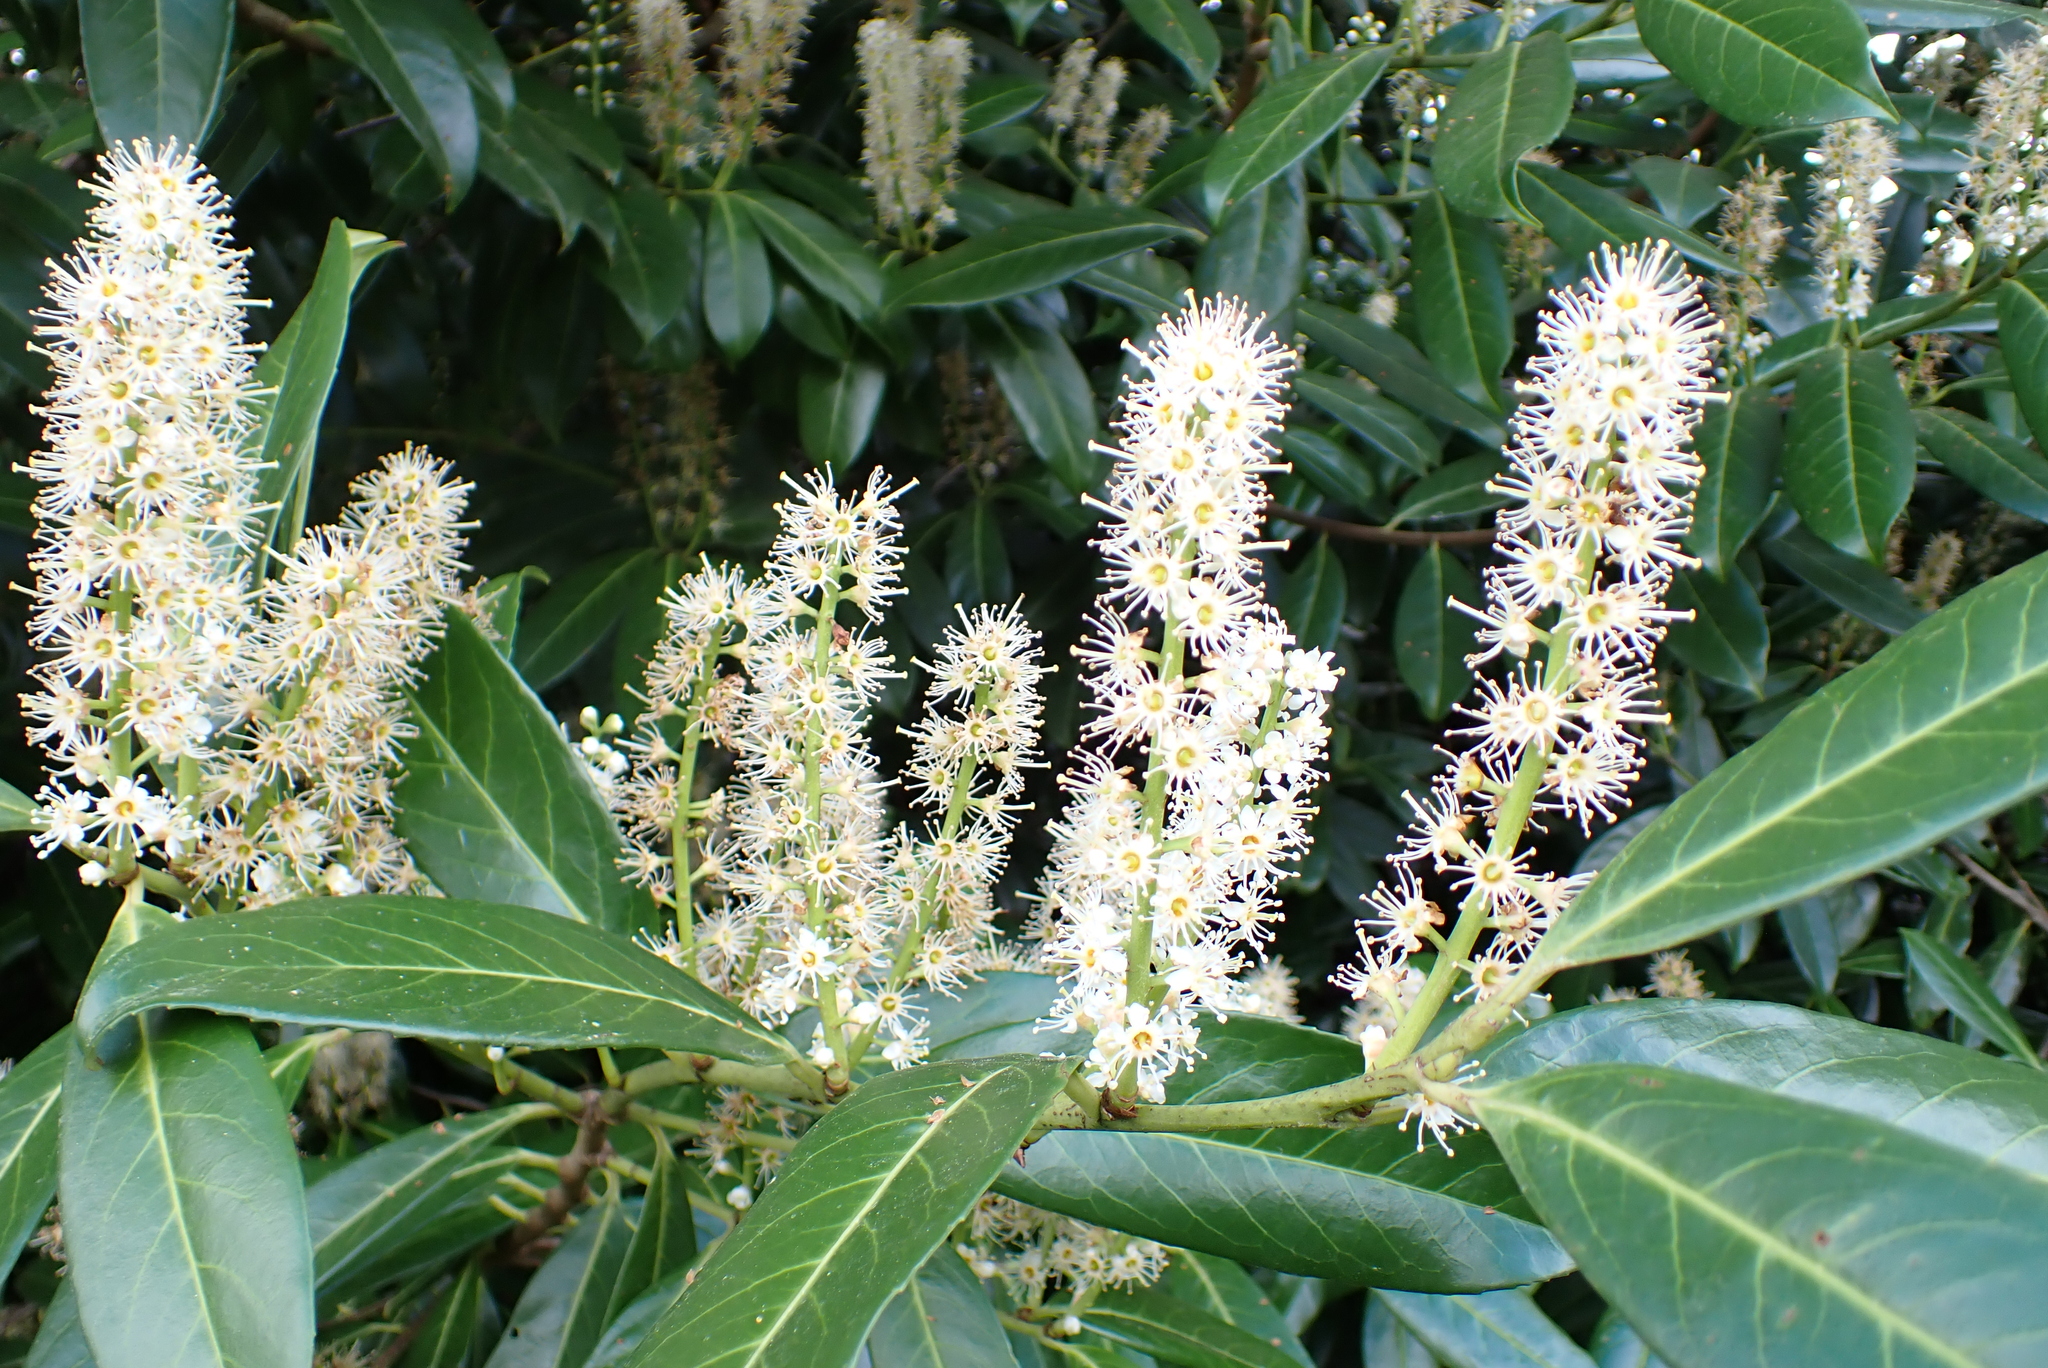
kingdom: Plantae
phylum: Tracheophyta
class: Magnoliopsida
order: Rosales
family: Rosaceae
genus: Prunus
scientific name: Prunus laurocerasus
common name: Cherry laurel
